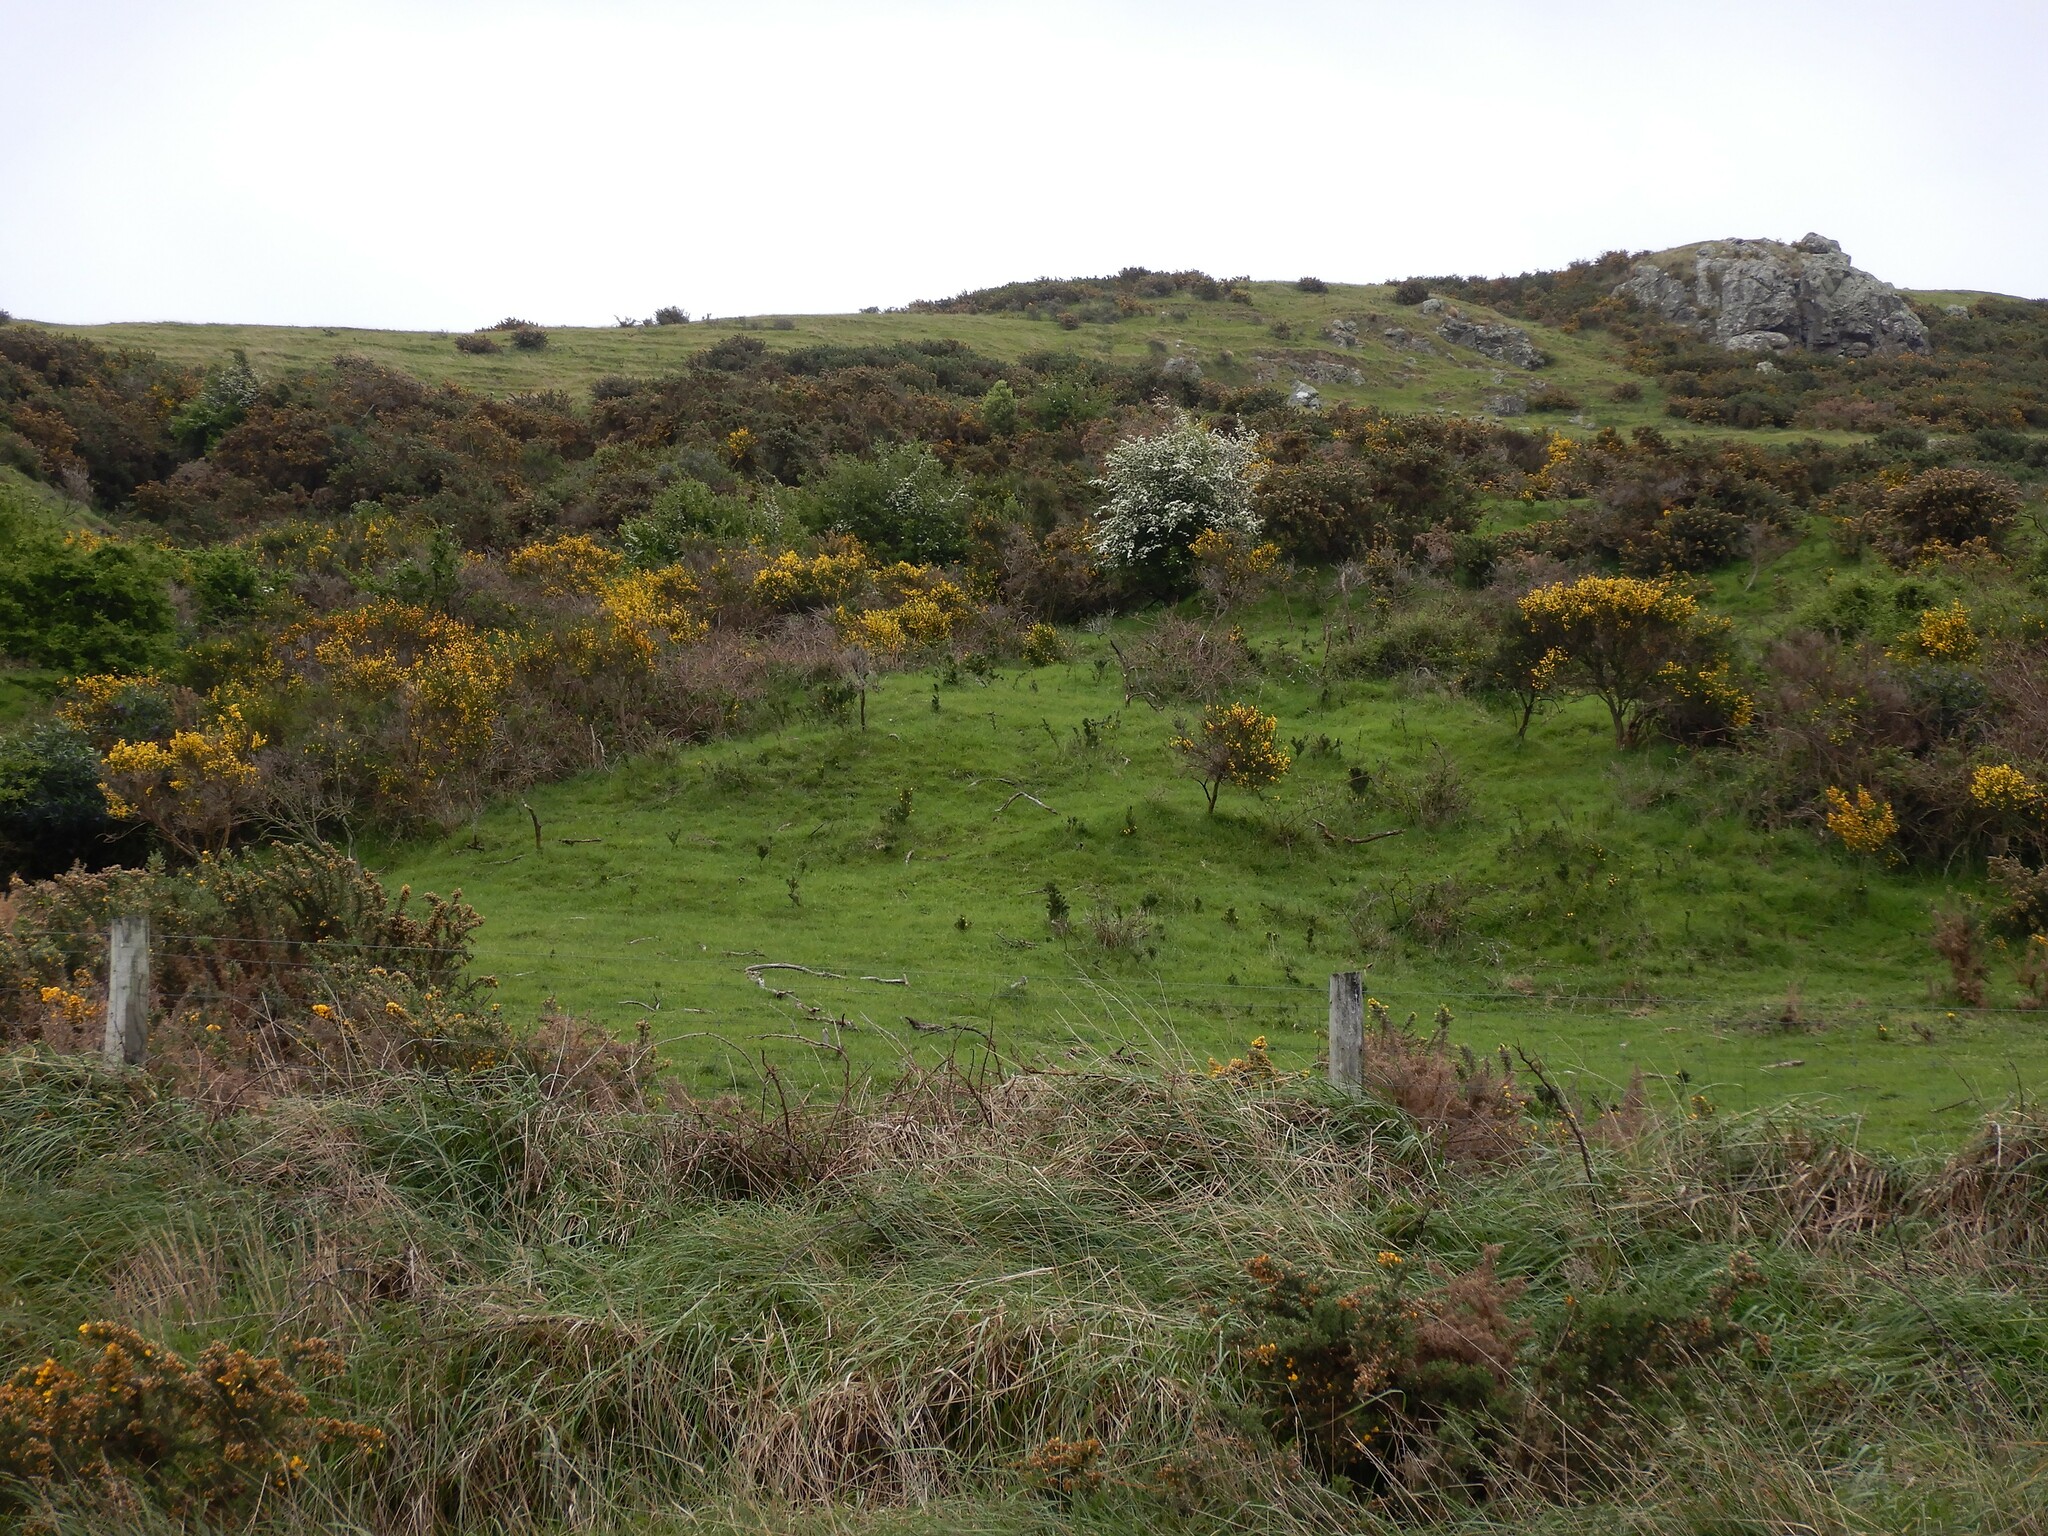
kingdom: Plantae
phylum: Tracheophyta
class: Magnoliopsida
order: Rosales
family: Rosaceae
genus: Crataegus
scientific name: Crataegus monogyna
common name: Hawthorn
